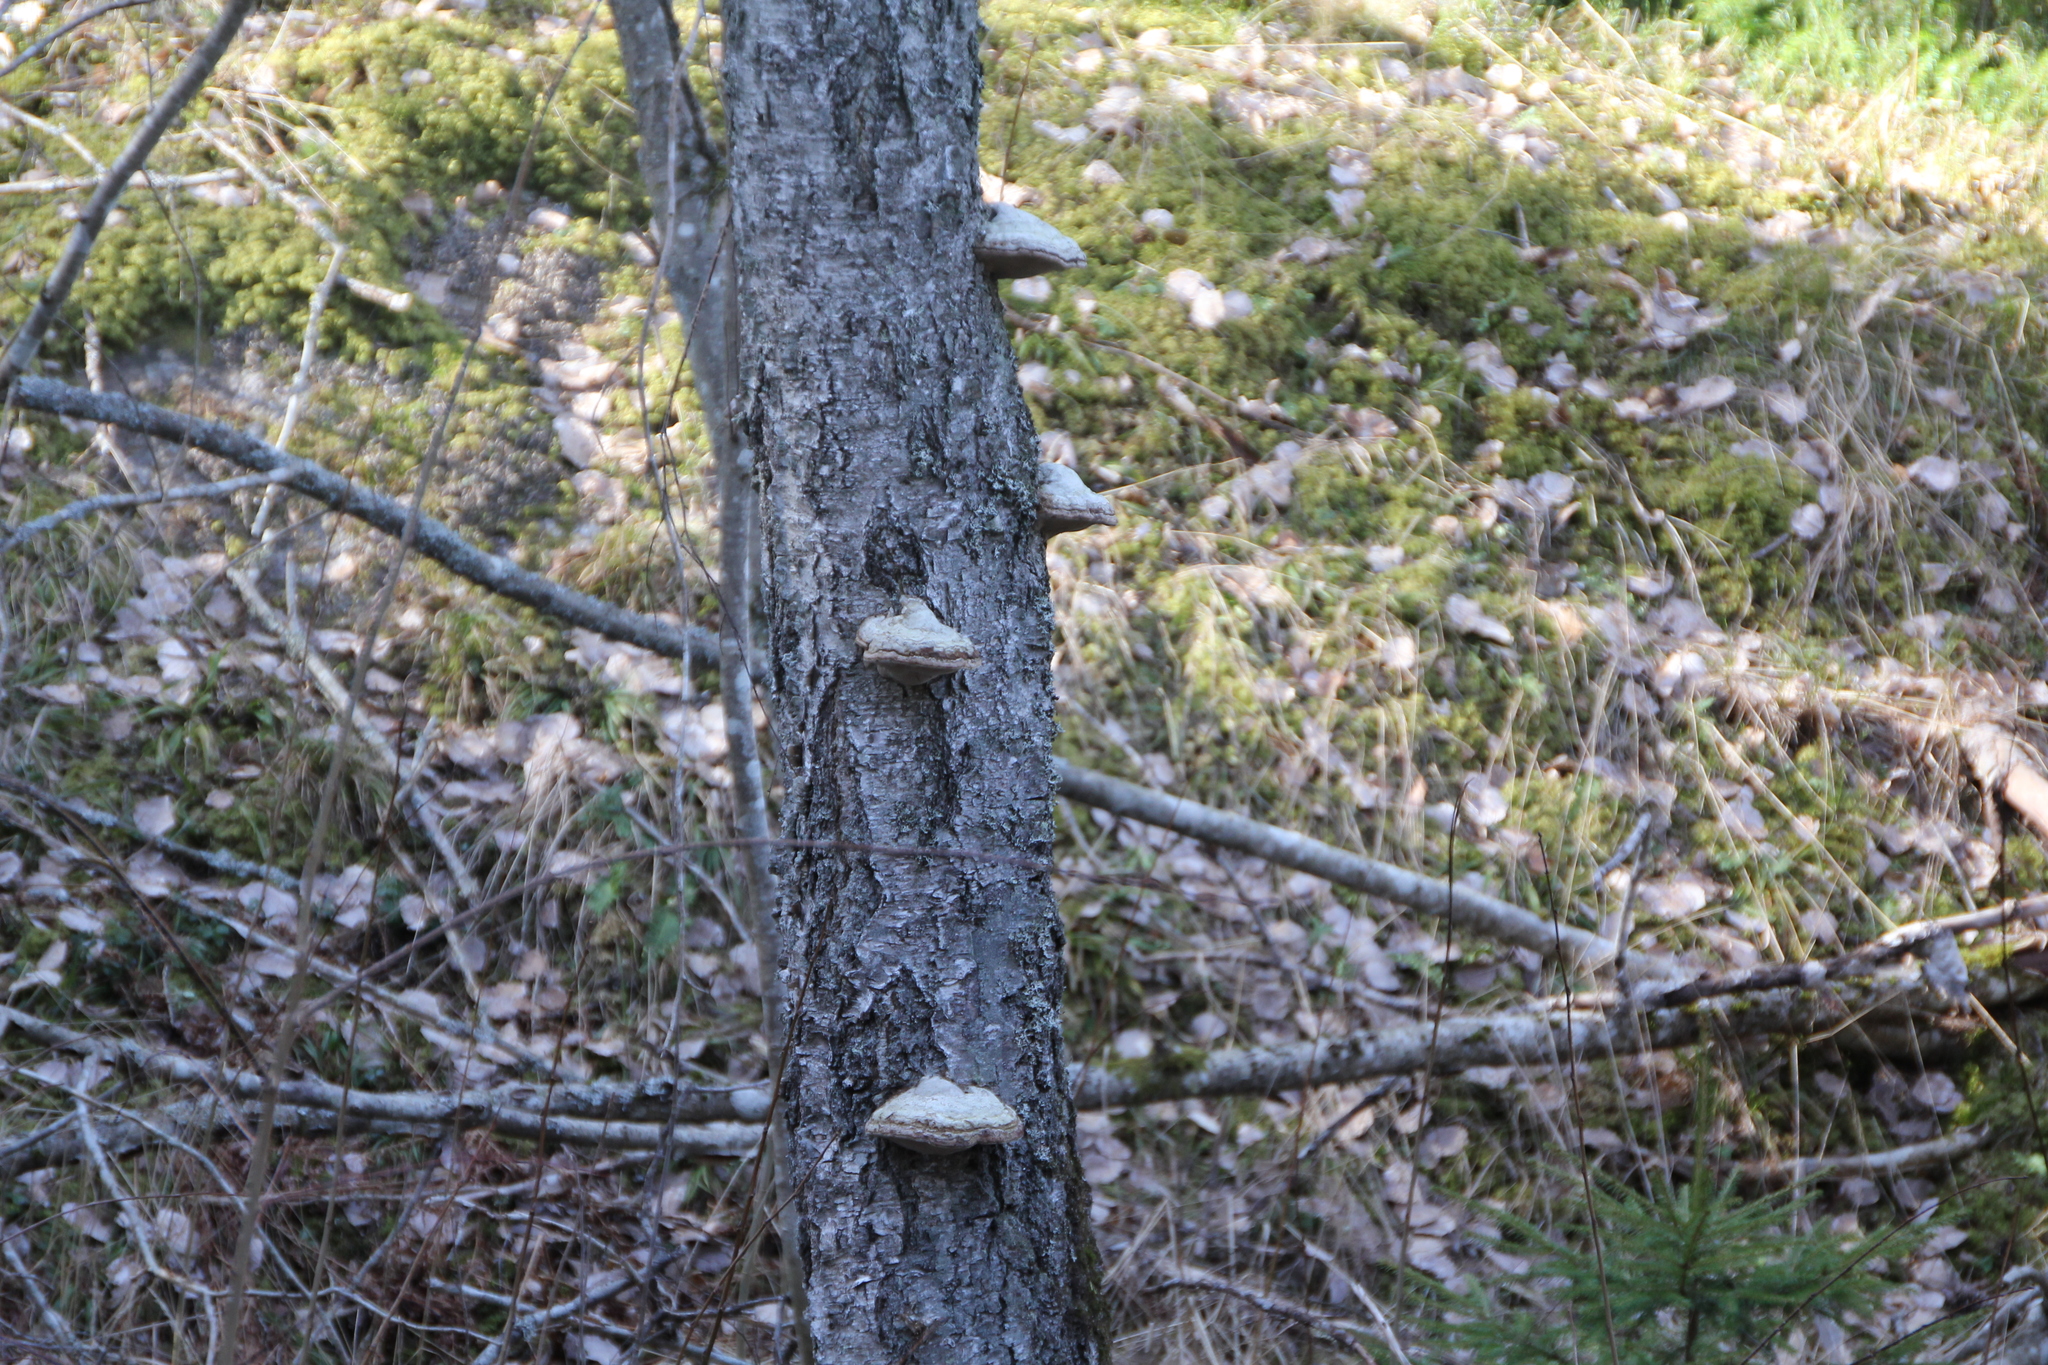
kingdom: Fungi
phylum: Basidiomycota
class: Agaricomycetes
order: Polyporales
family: Polyporaceae
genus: Fomes
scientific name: Fomes fomentarius
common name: Hoof fungus
